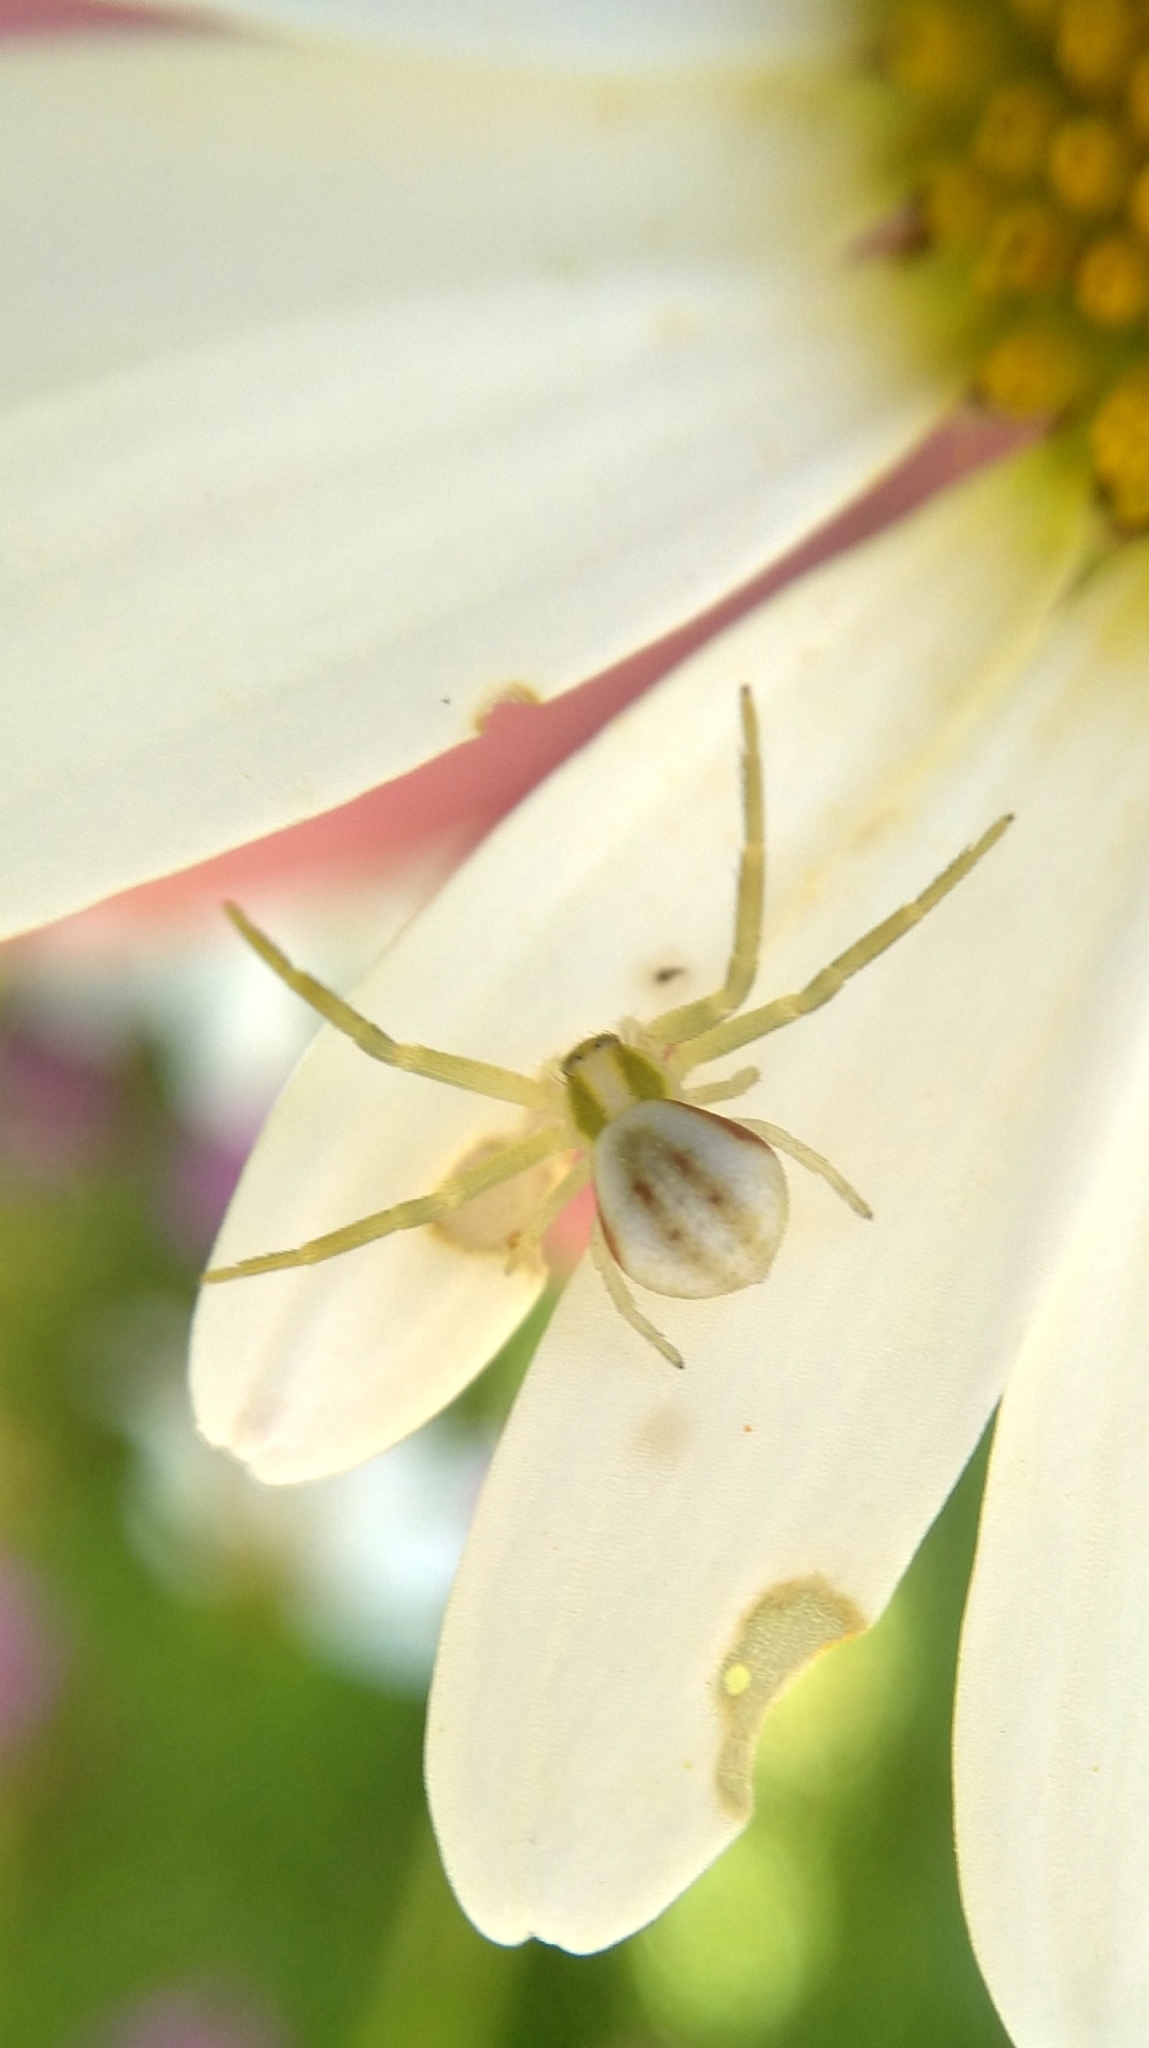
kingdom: Animalia
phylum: Arthropoda
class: Arachnida
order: Araneae
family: Thomisidae
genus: Misumena
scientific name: Misumena vatia
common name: Goldenrod crab spider
